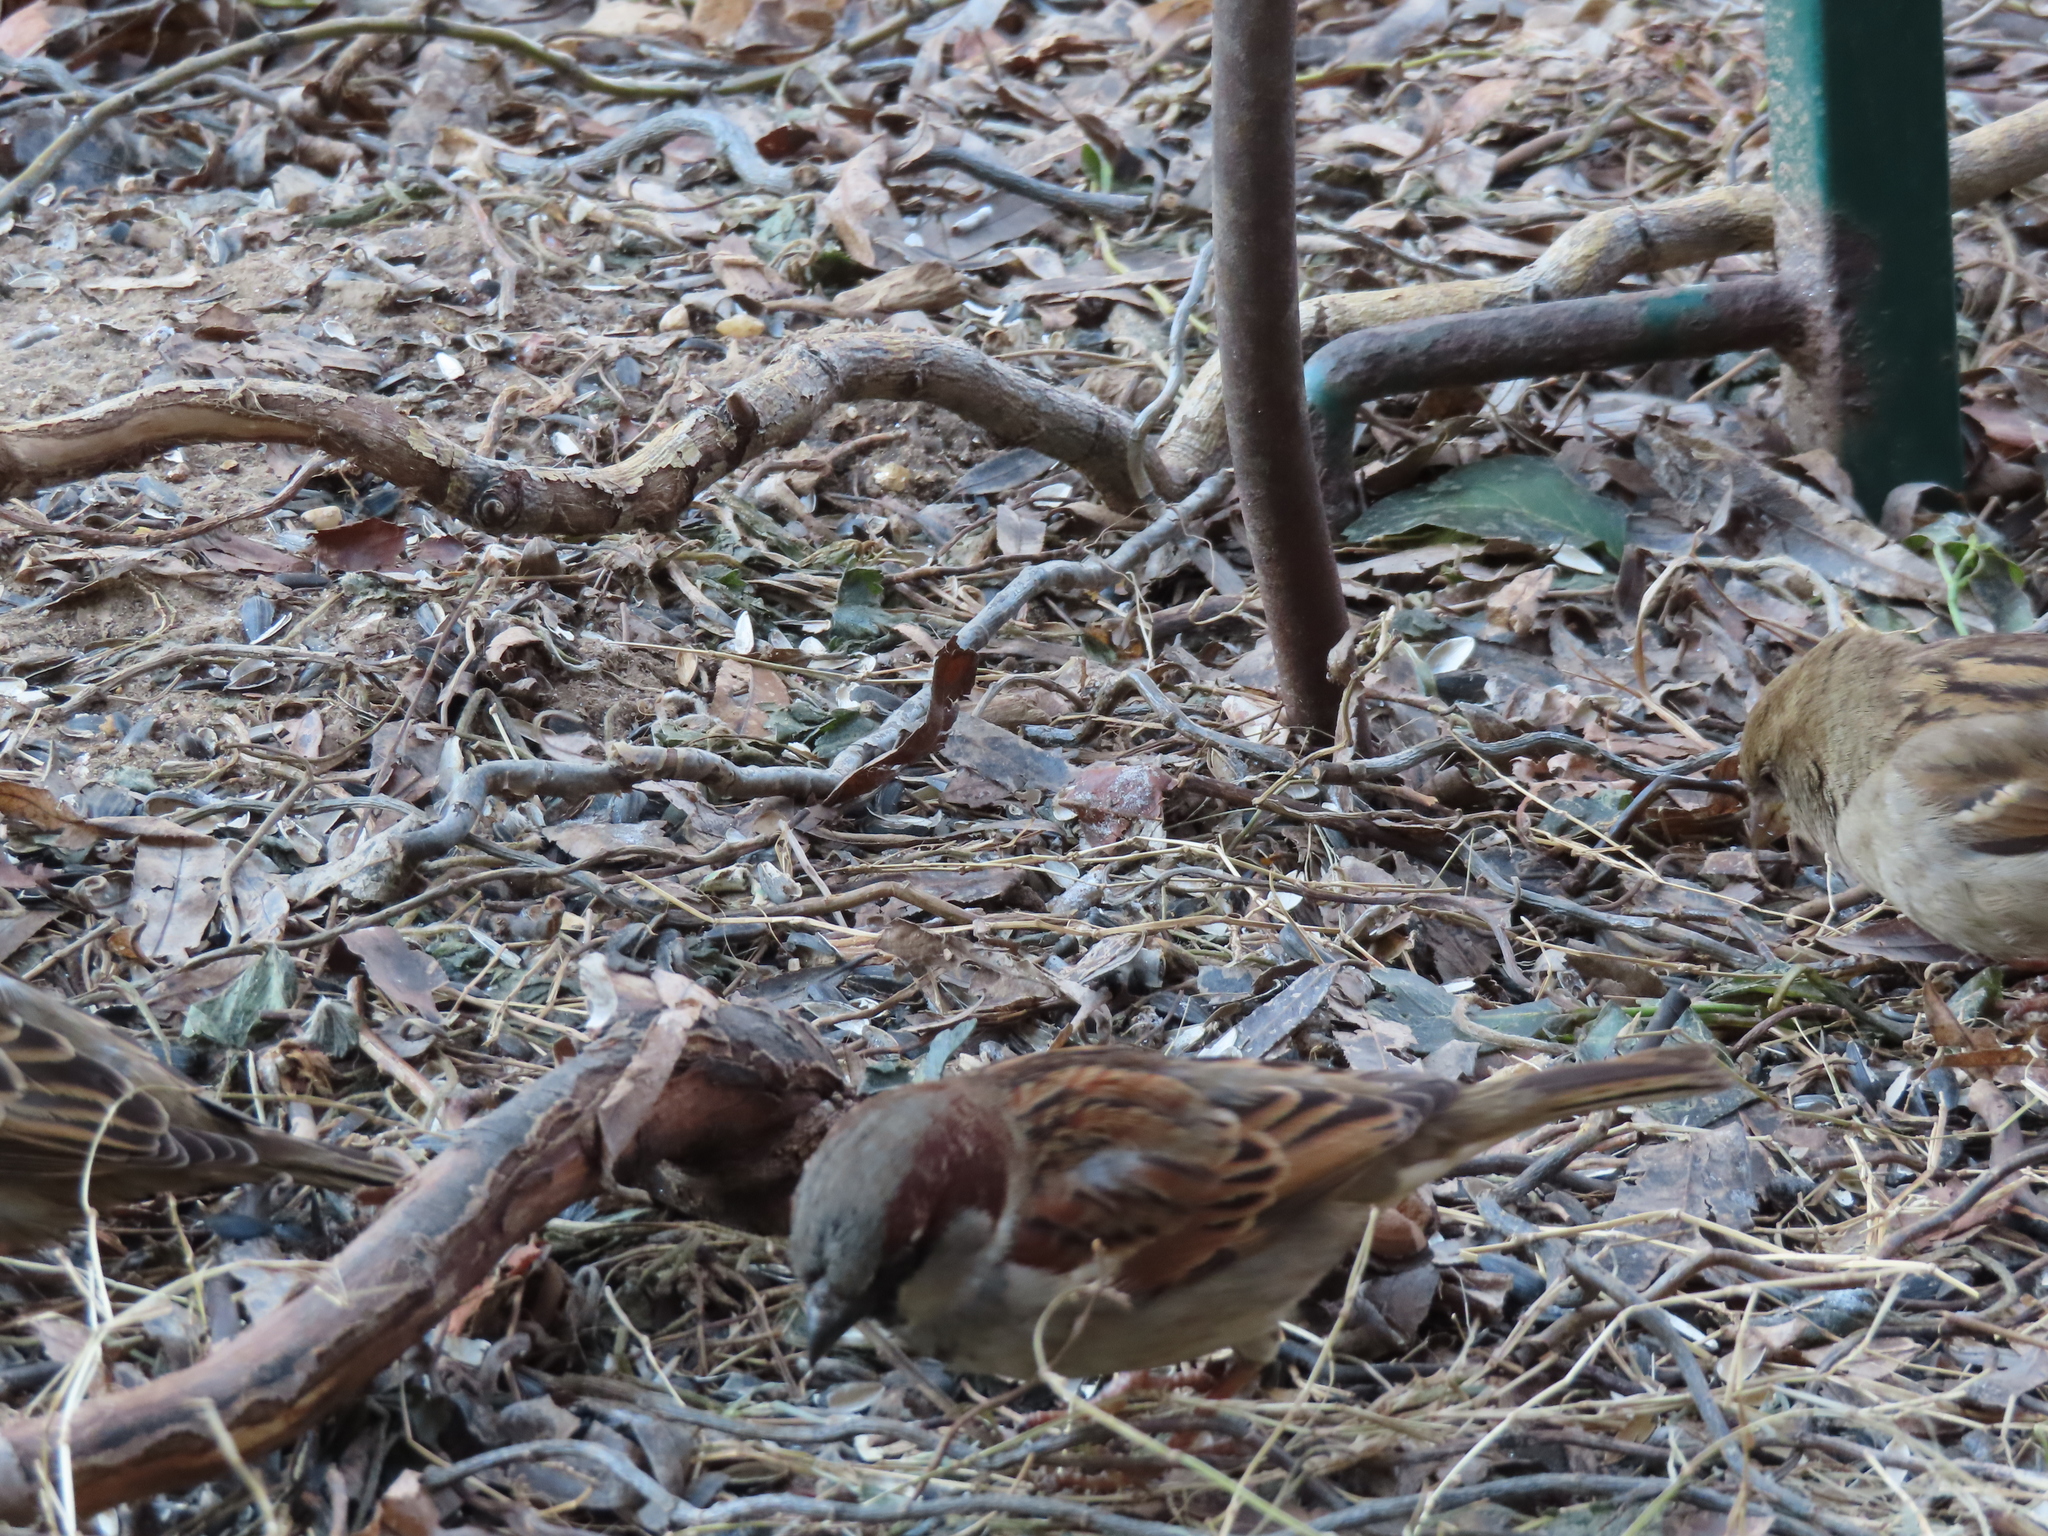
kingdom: Animalia
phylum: Chordata
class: Aves
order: Passeriformes
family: Passeridae
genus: Passer
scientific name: Passer domesticus
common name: House sparrow
